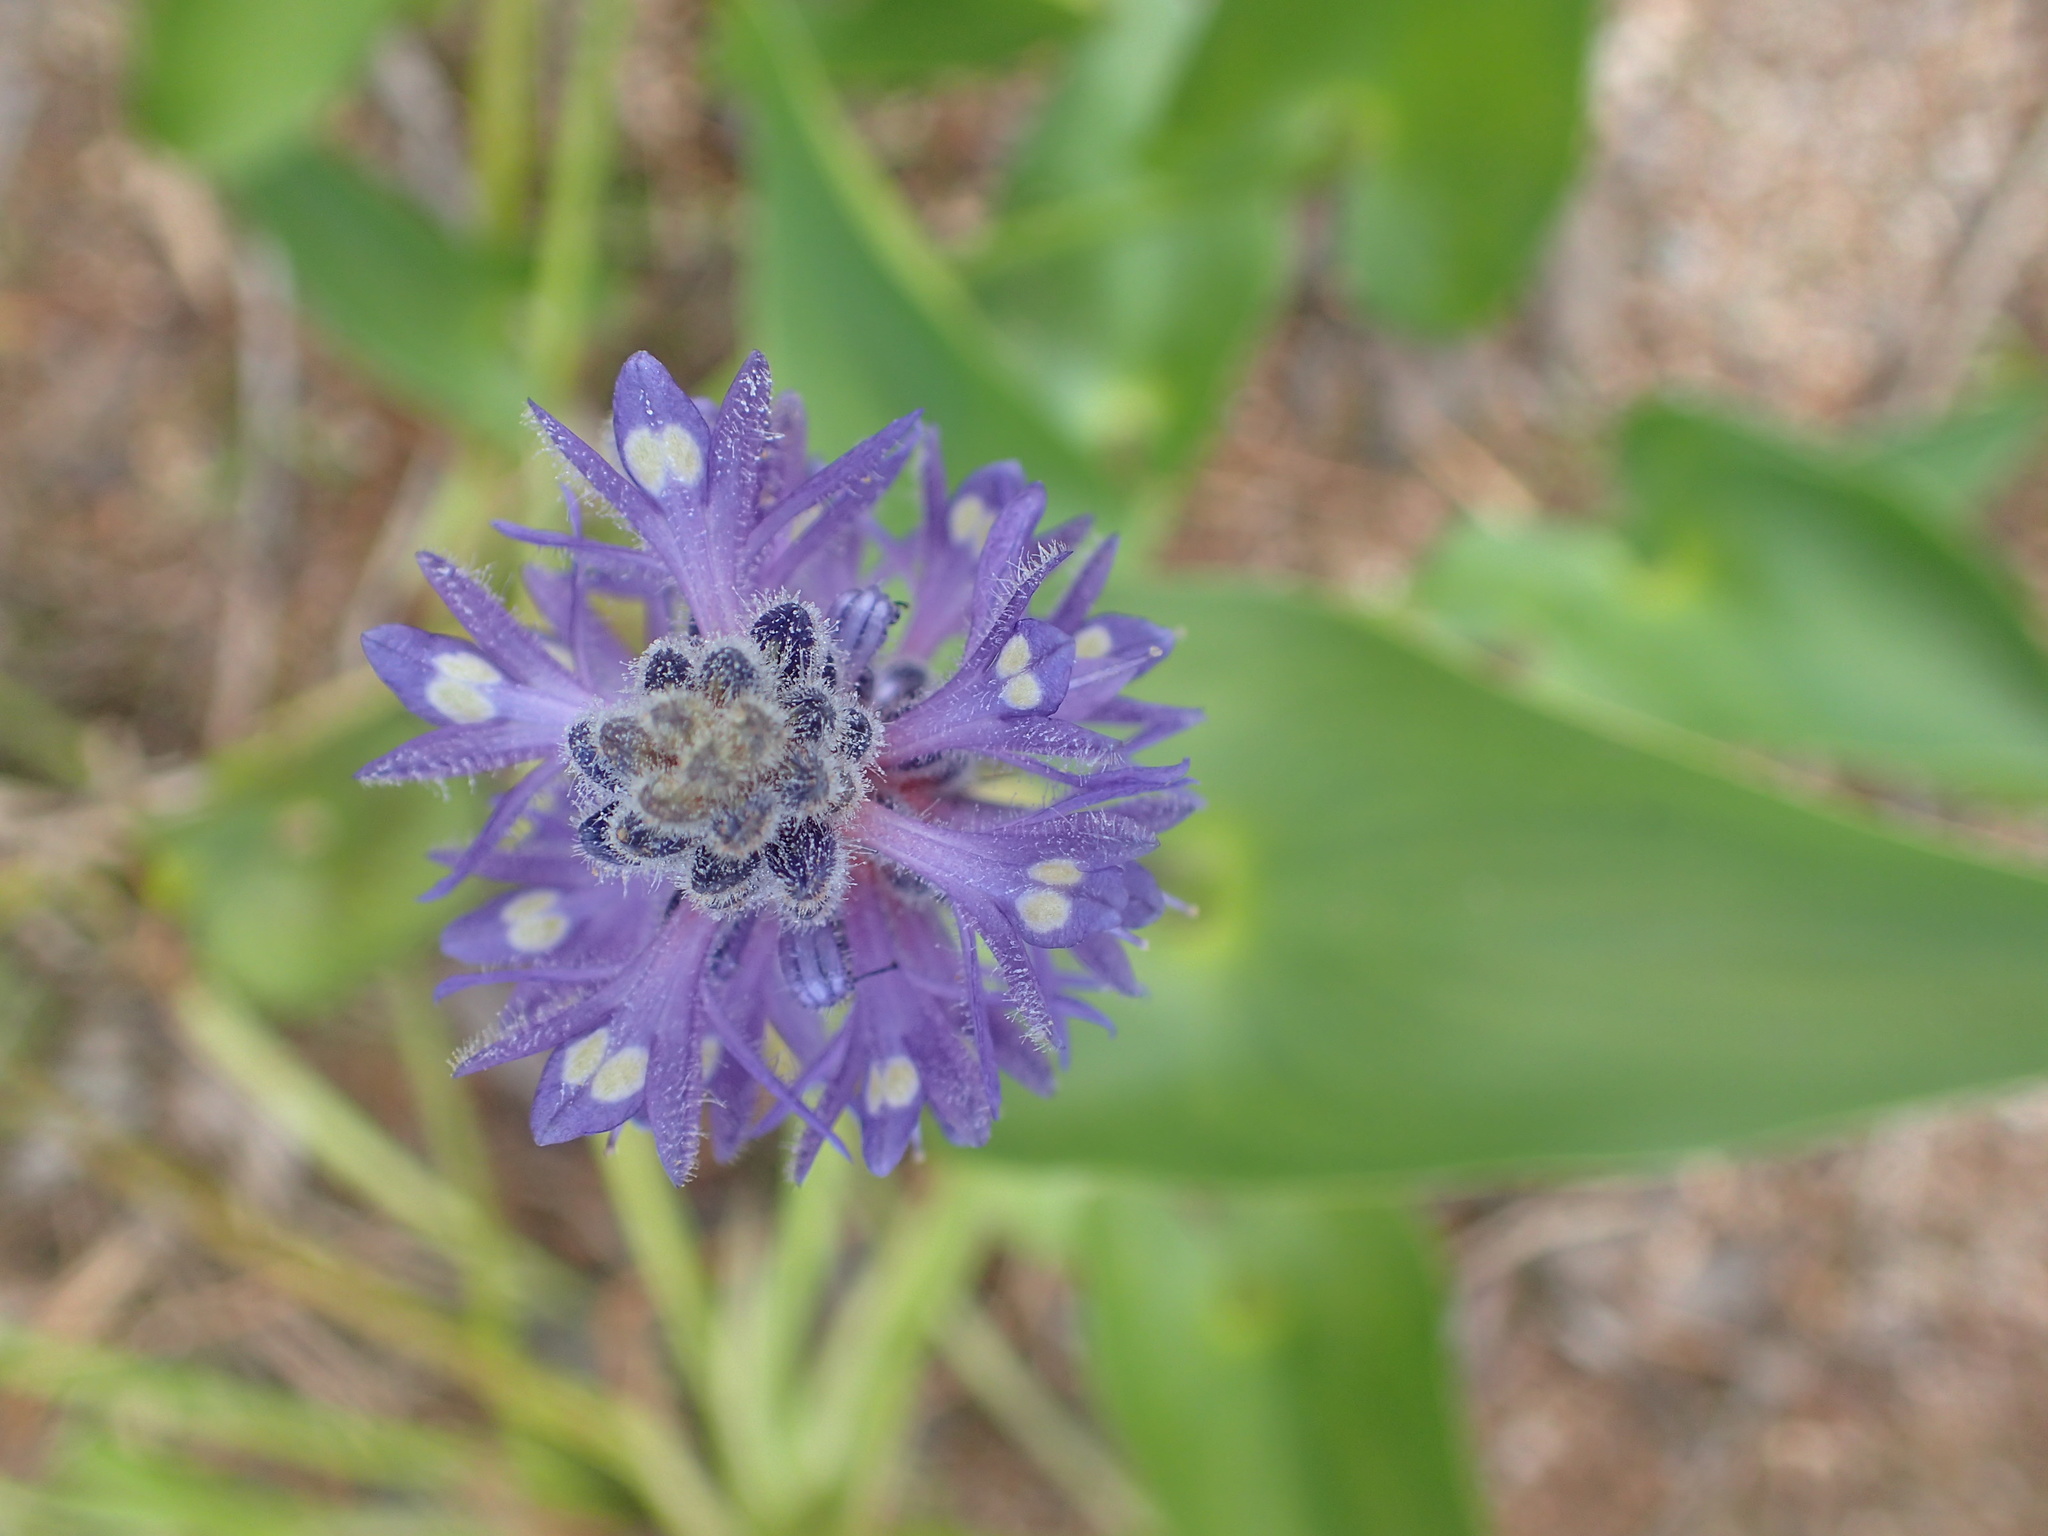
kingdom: Plantae
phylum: Tracheophyta
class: Liliopsida
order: Commelinales
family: Pontederiaceae
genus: Pontederia
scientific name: Pontederia cordata
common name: Pickerelweed
